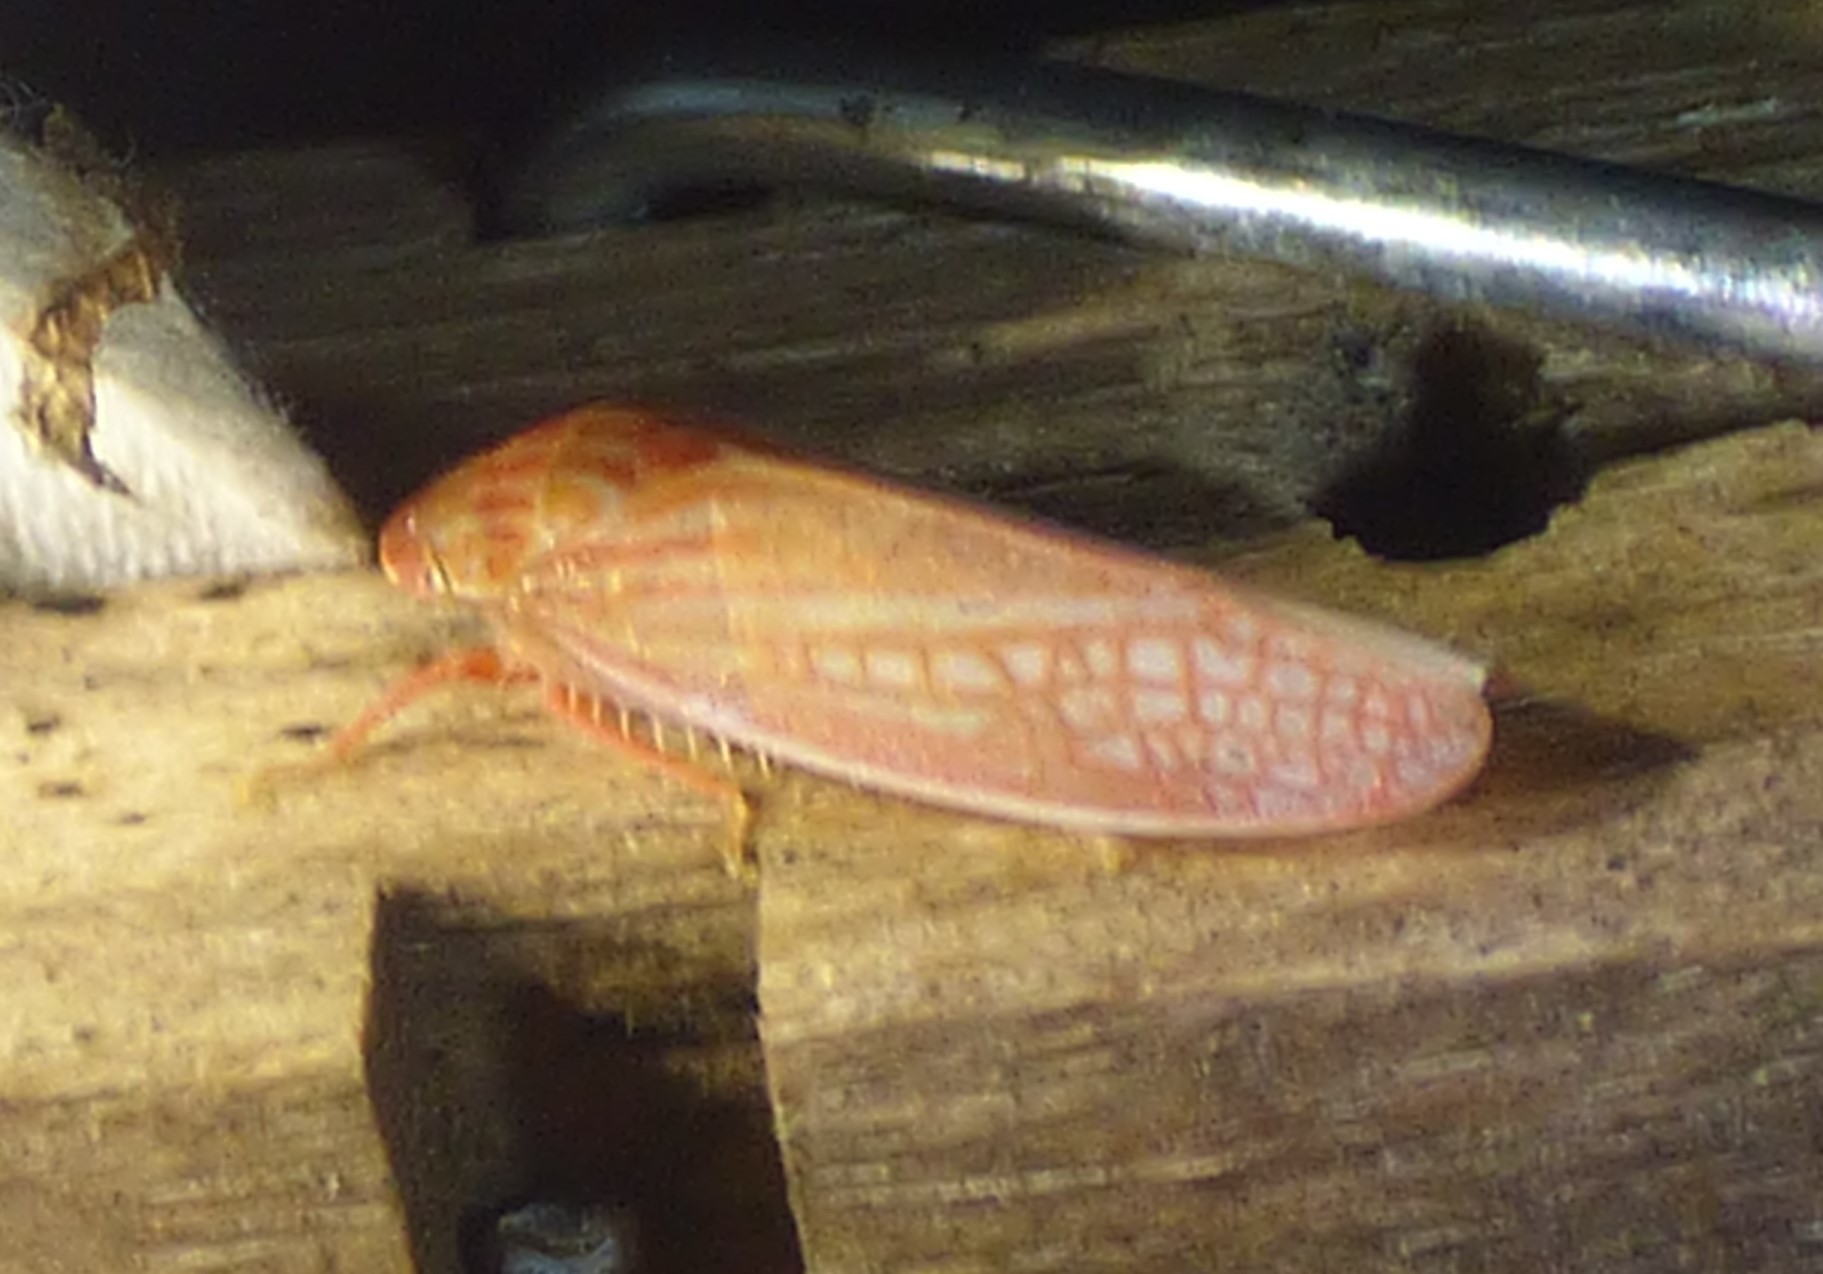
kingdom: Animalia
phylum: Arthropoda
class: Insecta
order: Hemiptera
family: Cicadellidae
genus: Gyponana
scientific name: Gyponana gladia
